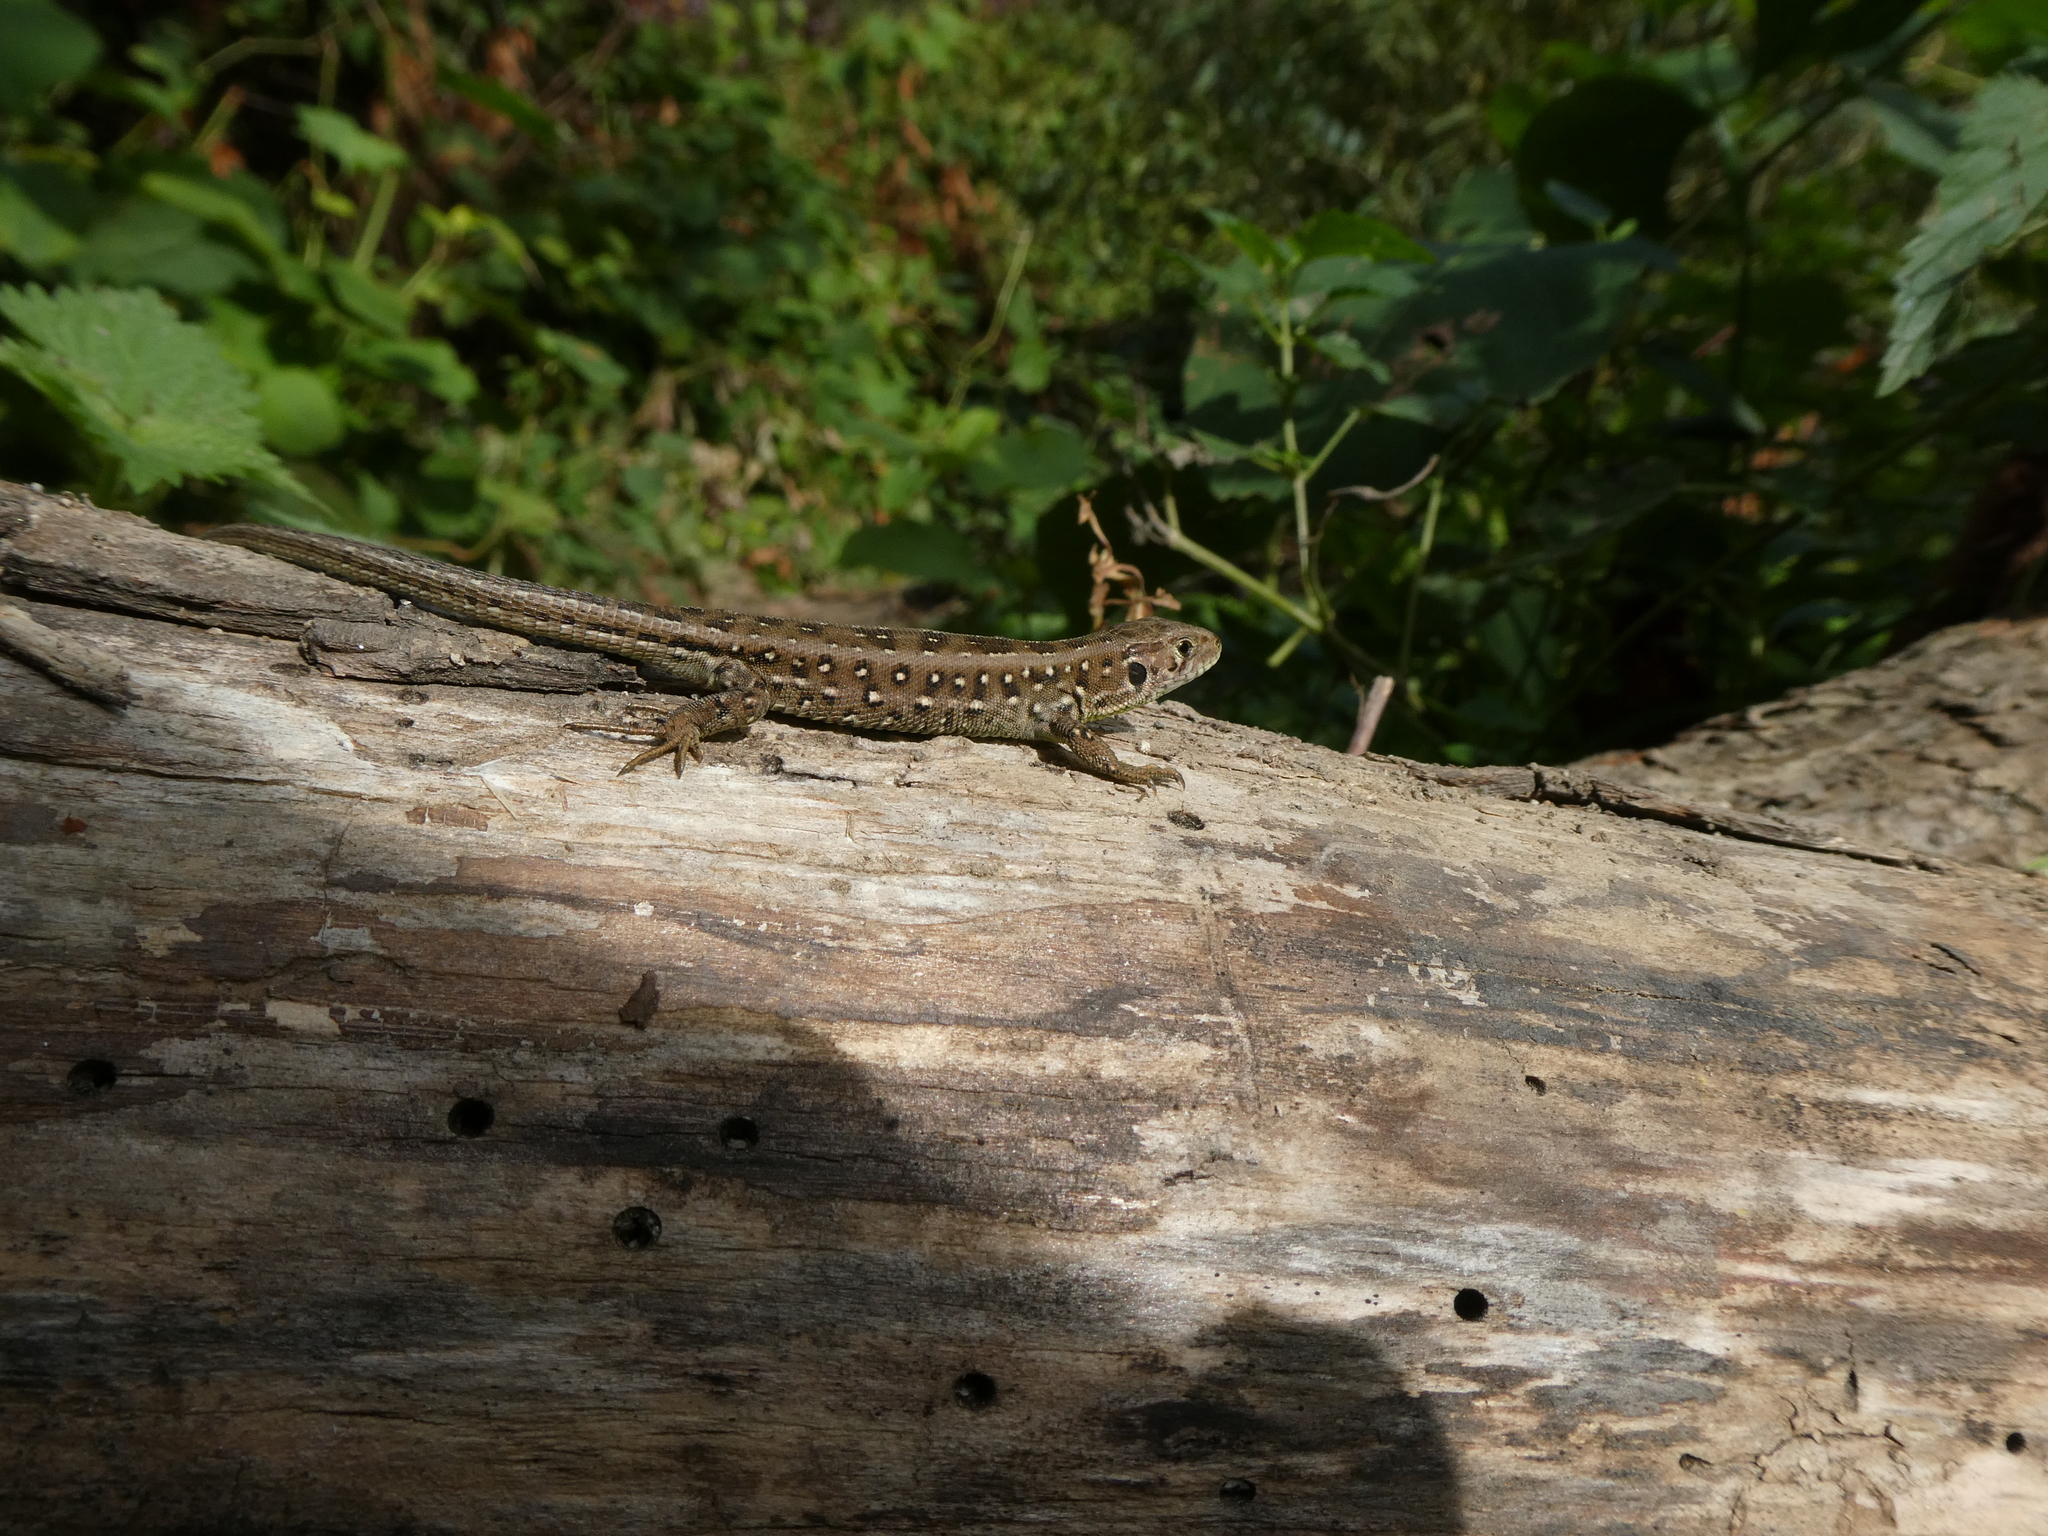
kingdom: Animalia
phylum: Chordata
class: Squamata
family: Lacertidae
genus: Lacerta
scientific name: Lacerta agilis
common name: Sand lizard
